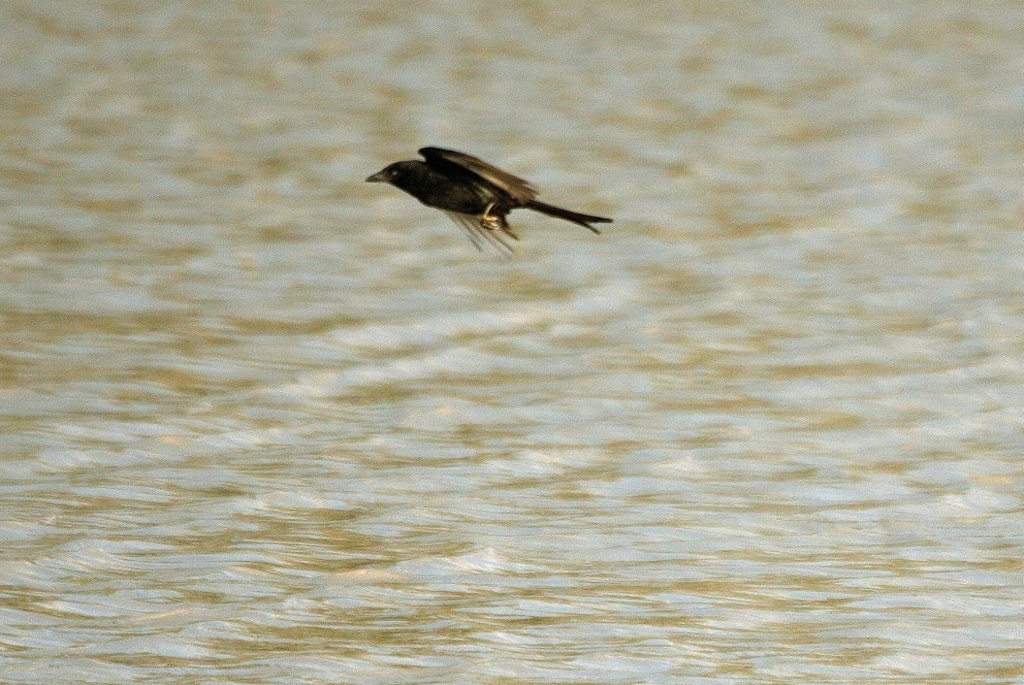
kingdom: Animalia
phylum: Chordata
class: Aves
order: Passeriformes
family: Dicruridae
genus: Dicrurus
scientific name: Dicrurus adsimilis
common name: Fork-tailed drongo
